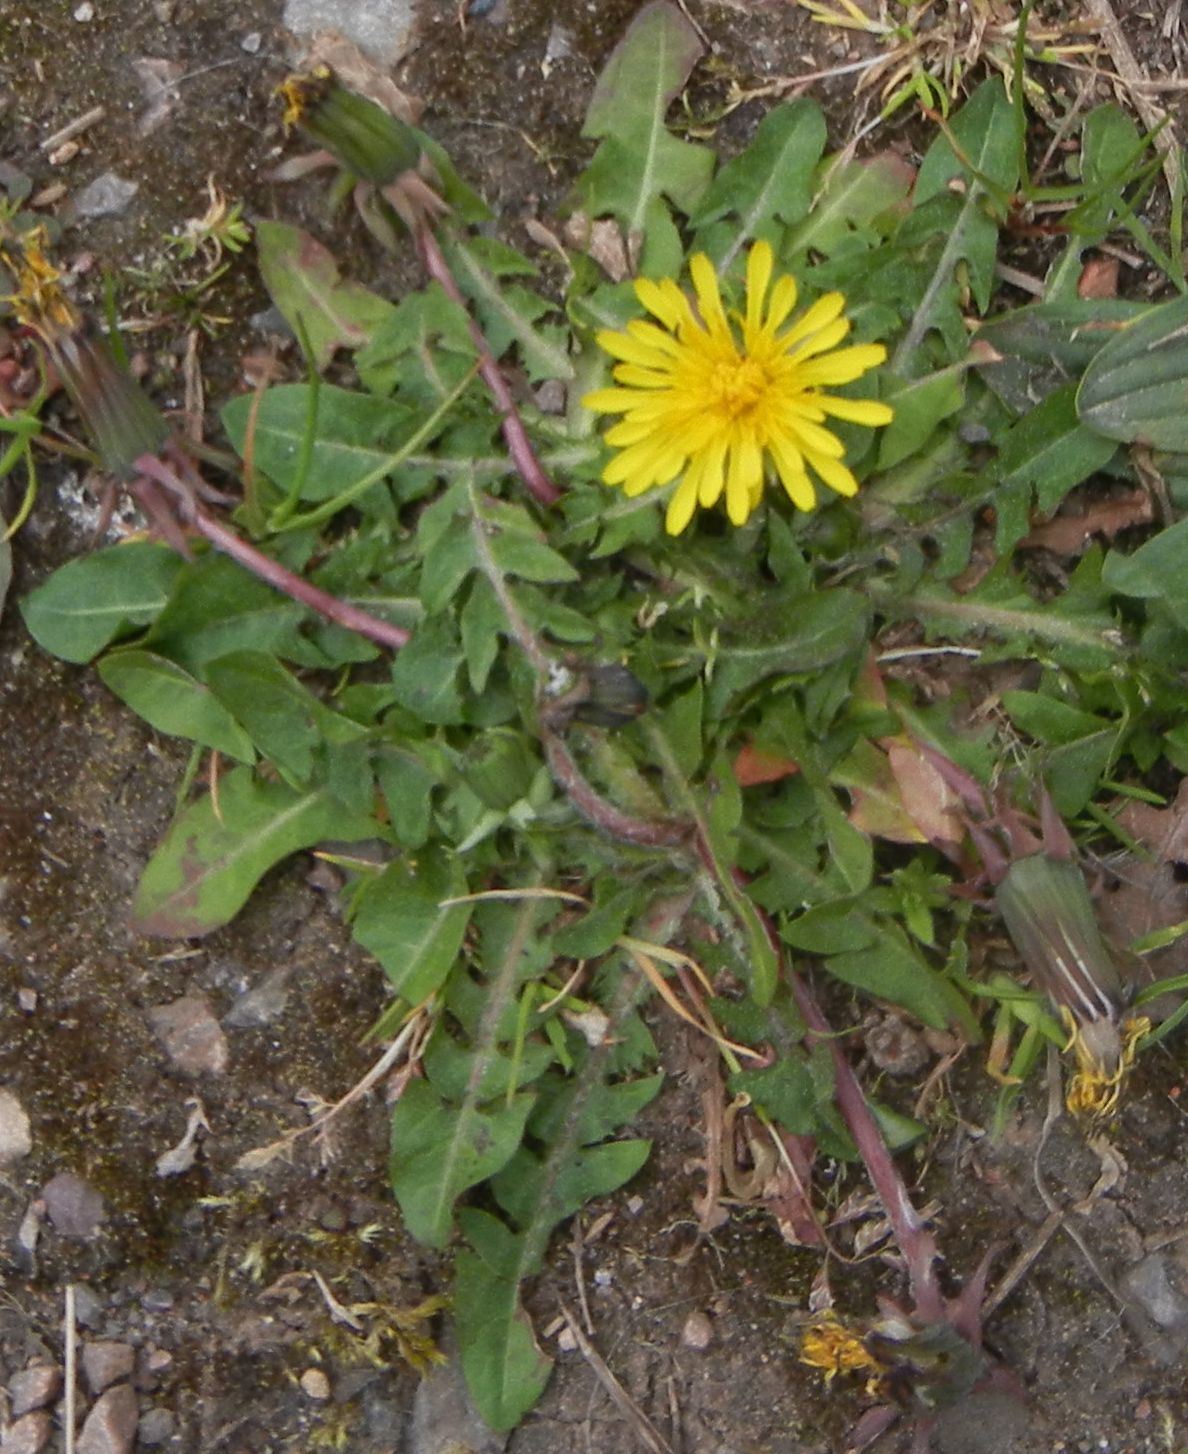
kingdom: Plantae
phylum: Tracheophyta
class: Magnoliopsida
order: Asterales
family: Asteraceae
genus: Taraxacum
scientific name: Taraxacum officinale
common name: Common dandelion
